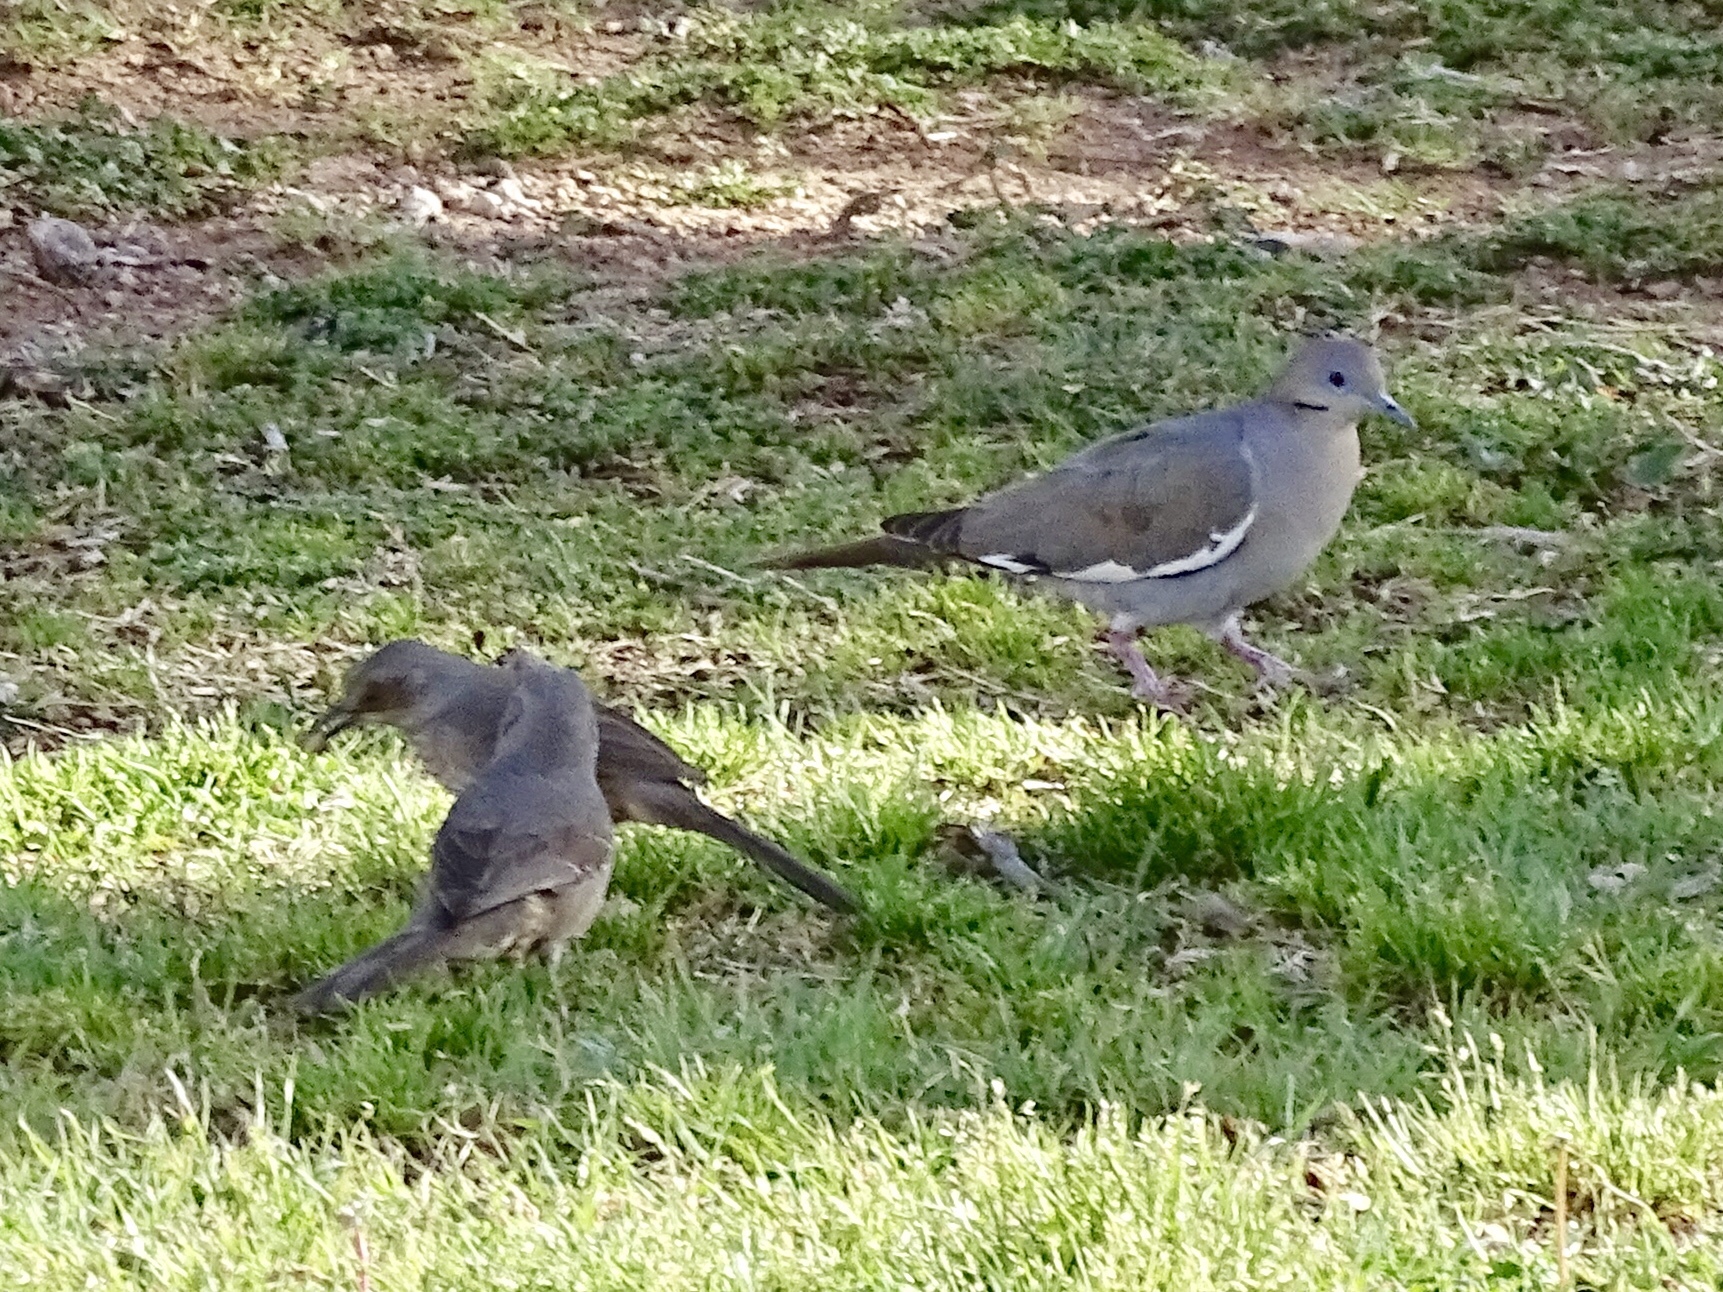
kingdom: Animalia
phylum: Chordata
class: Aves
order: Columbiformes
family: Columbidae
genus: Zenaida
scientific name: Zenaida asiatica
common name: White-winged dove
